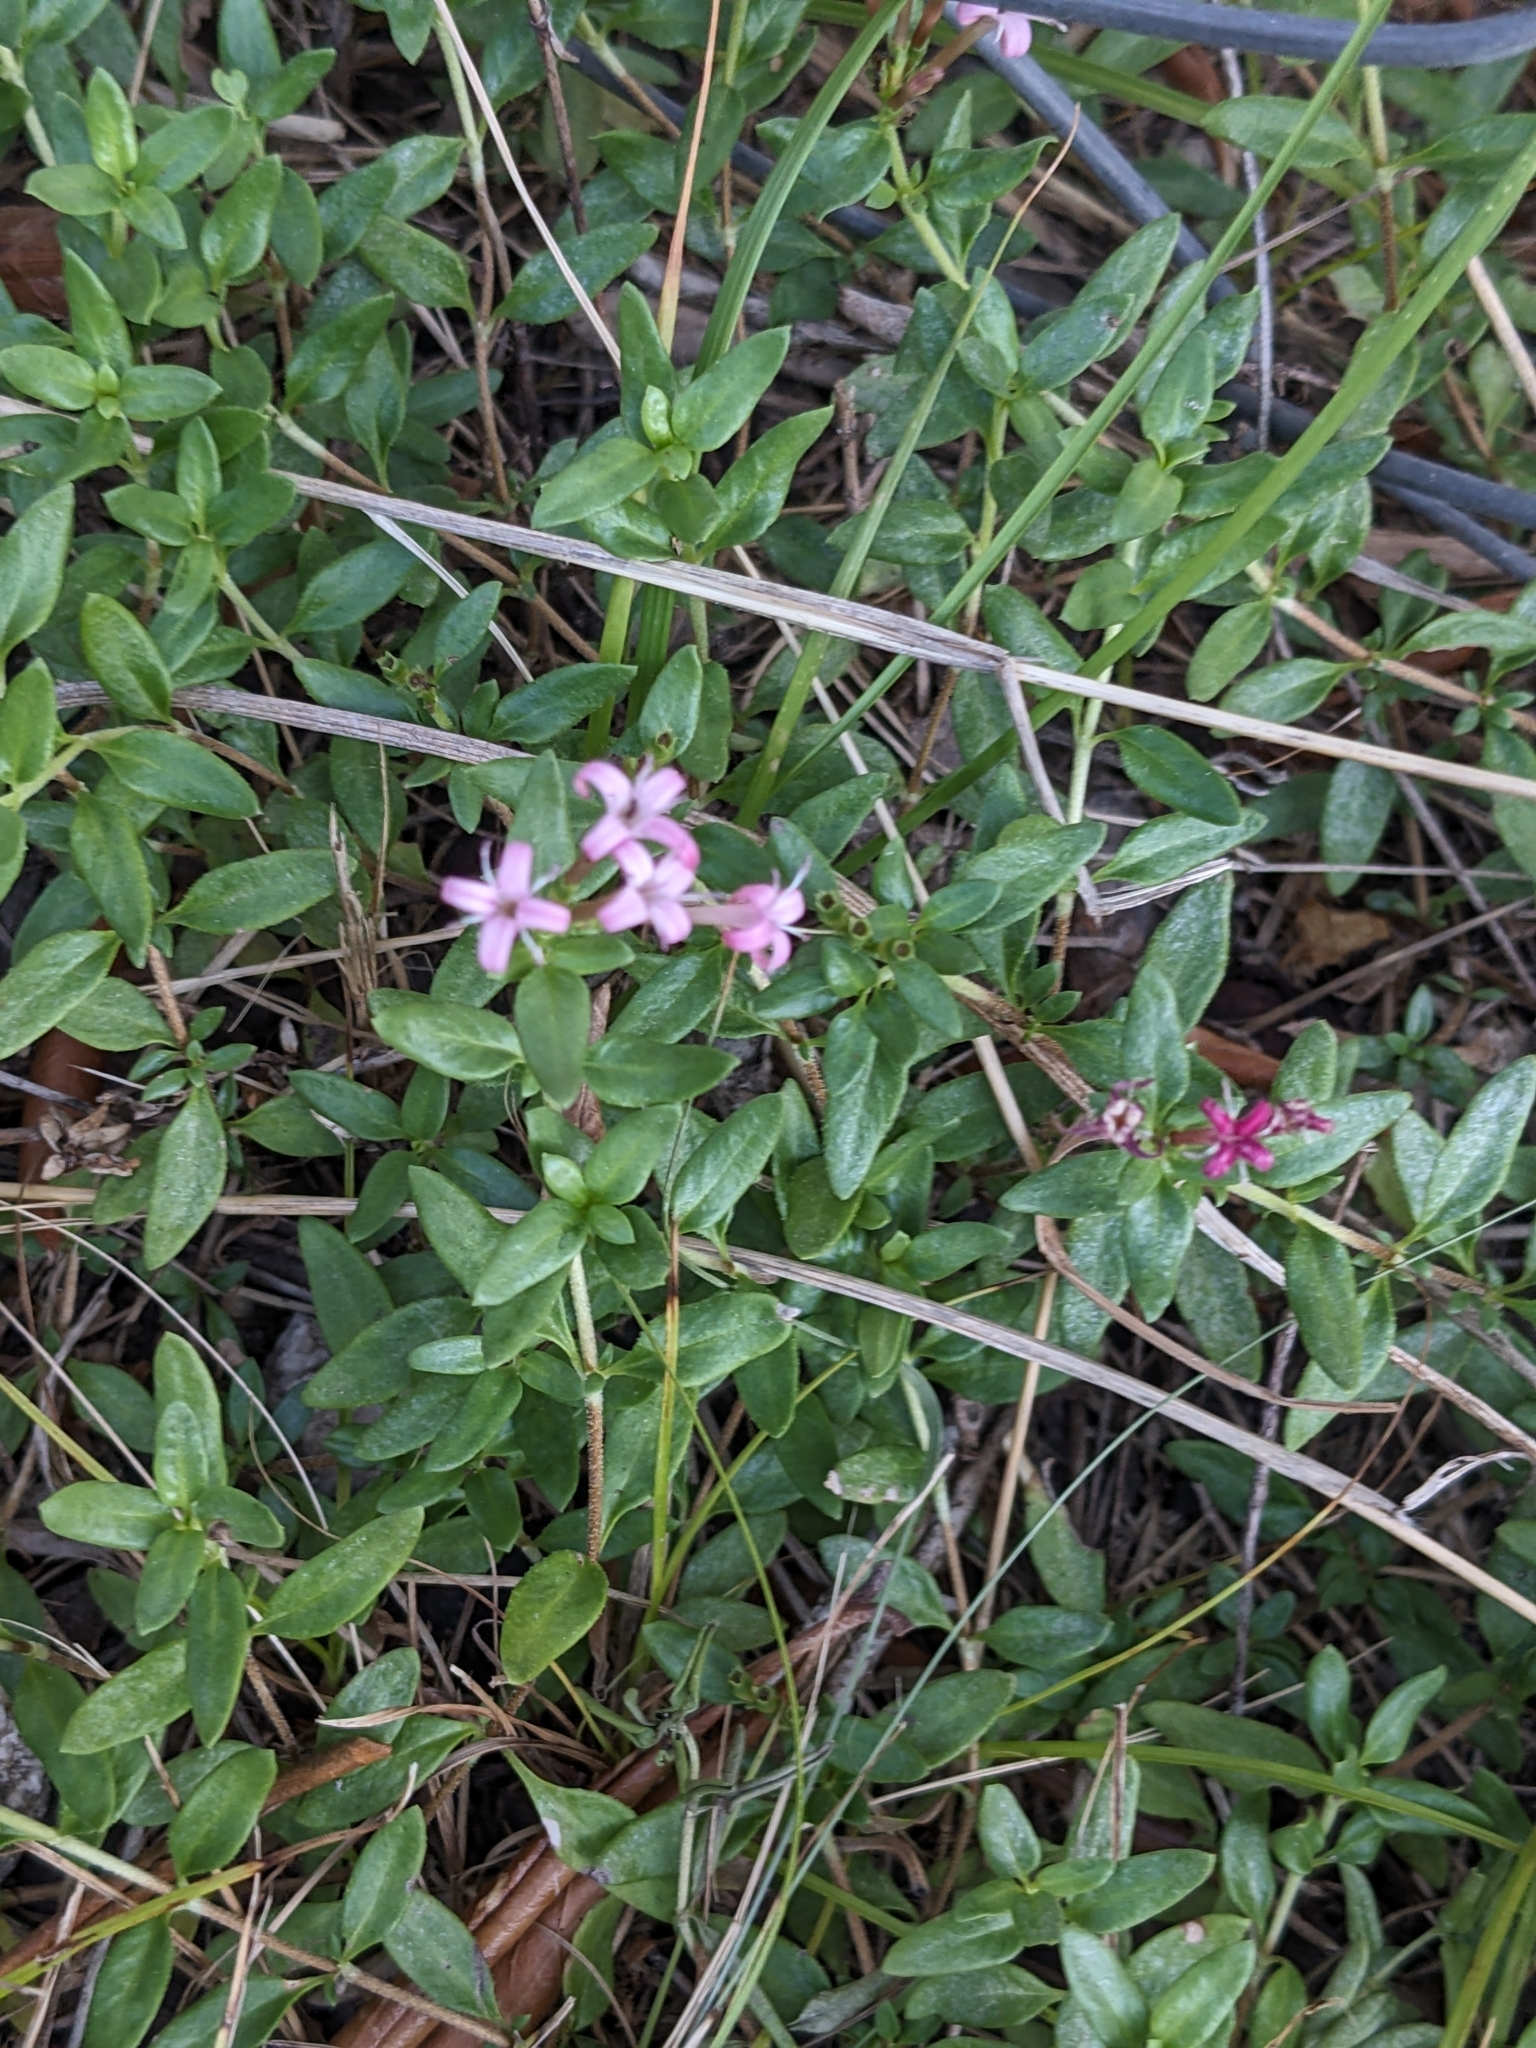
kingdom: Plantae
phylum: Tracheophyta
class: Magnoliopsida
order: Gentianales
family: Rubiaceae
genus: Plocama
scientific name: Plocama calabrica
